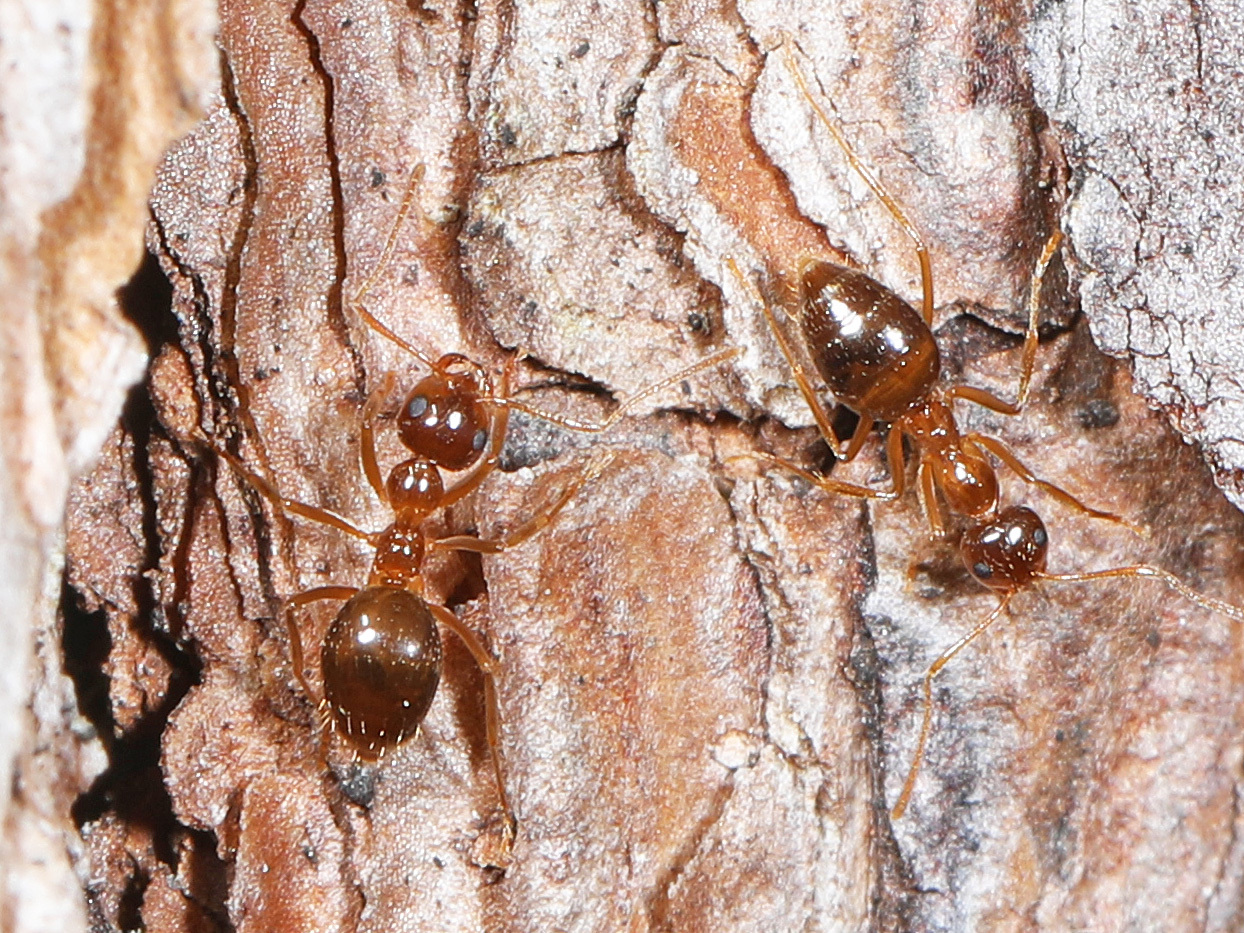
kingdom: Animalia
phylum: Arthropoda
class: Insecta
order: Hymenoptera
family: Formicidae
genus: Prenolepis
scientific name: Prenolepis imparis
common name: Small honey ant
